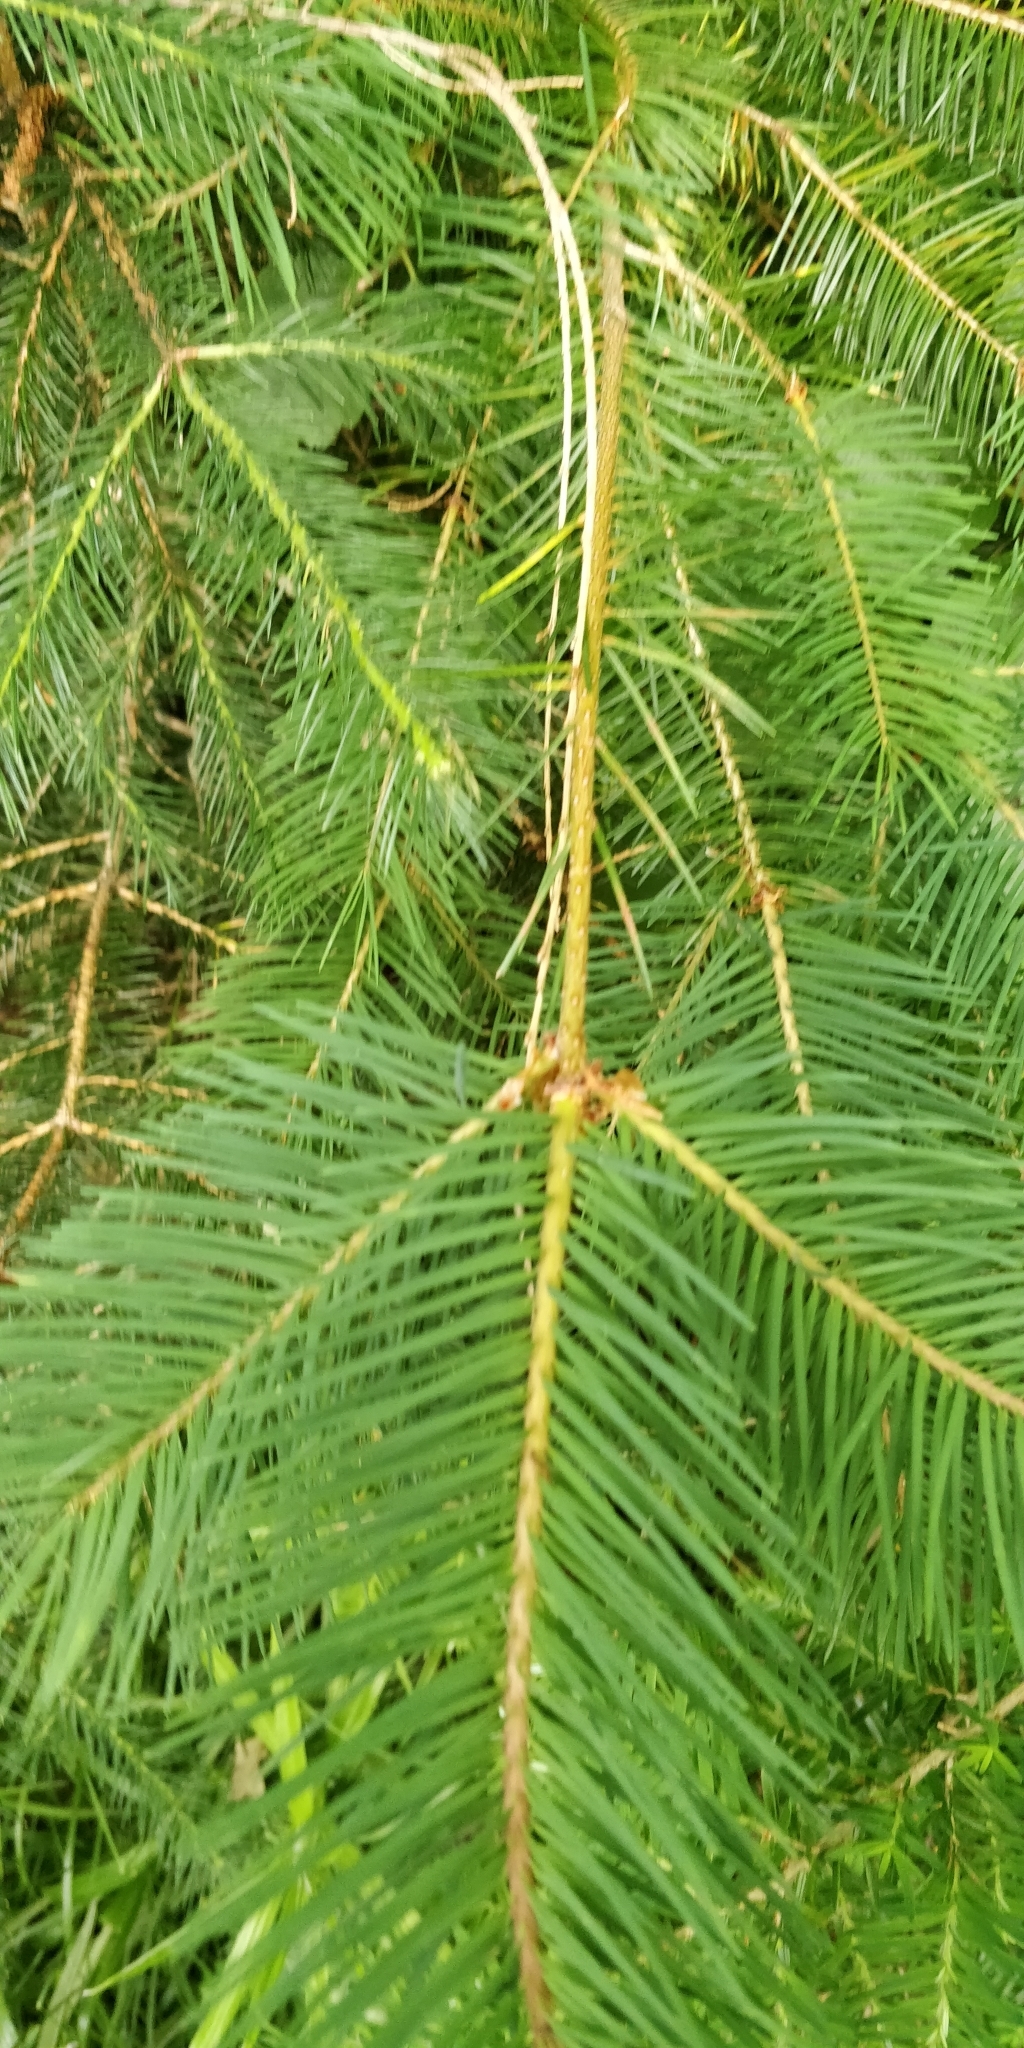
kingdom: Plantae
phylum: Tracheophyta
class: Pinopsida
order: Pinales
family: Pinaceae
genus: Pseudotsuga
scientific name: Pseudotsuga menziesii
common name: Douglas fir
